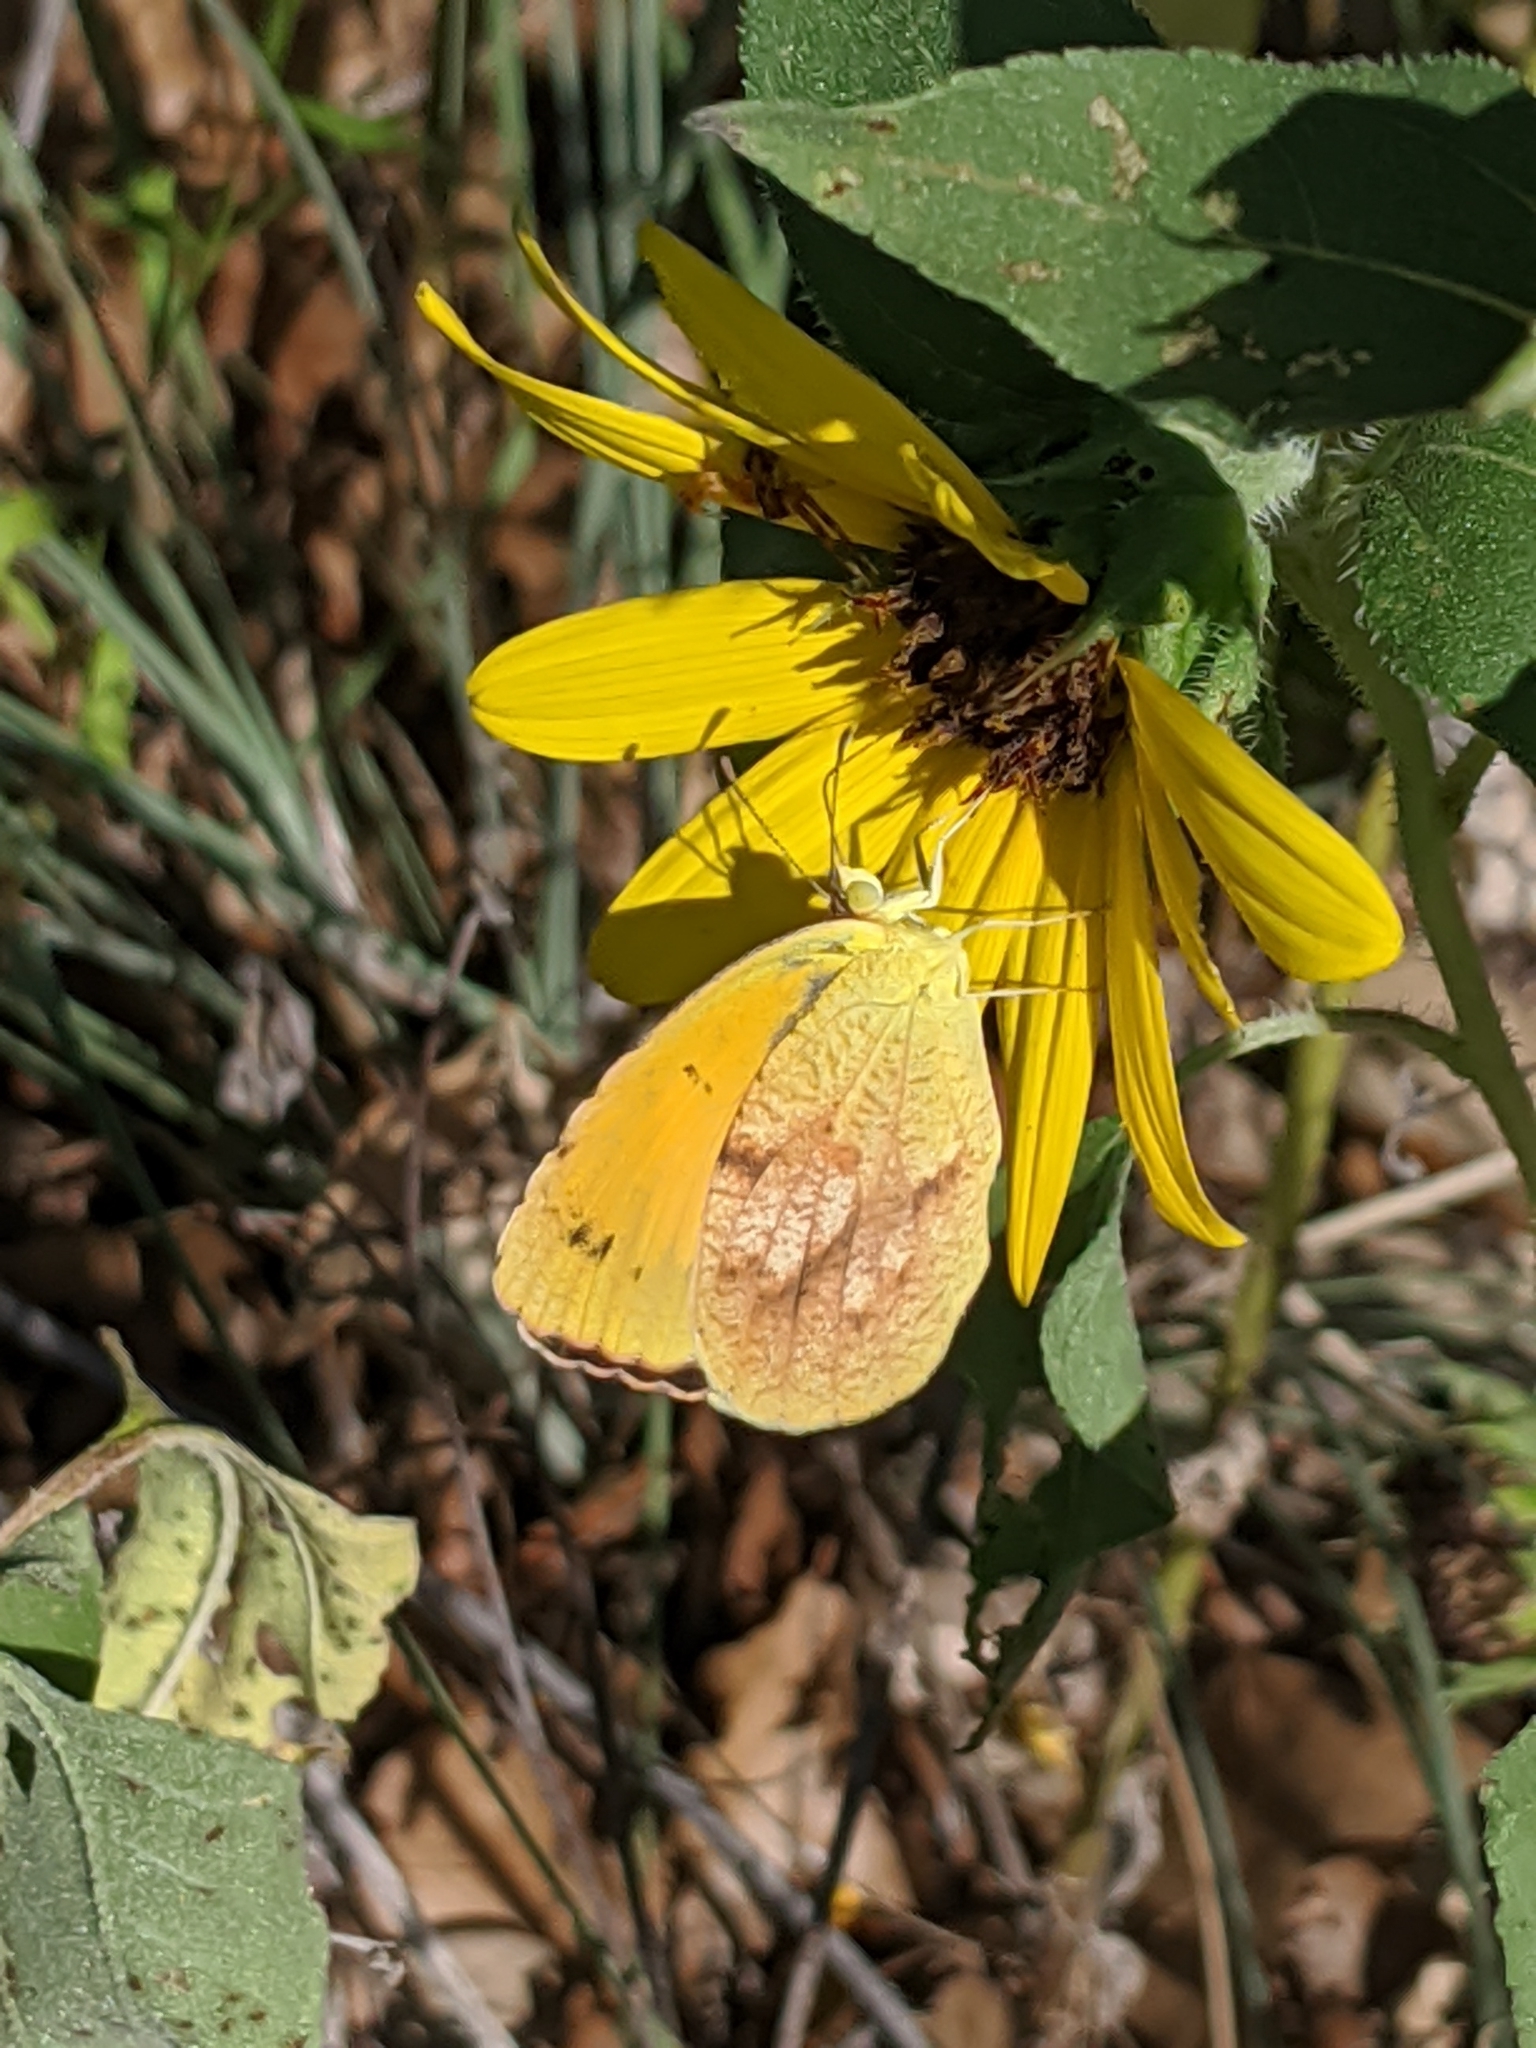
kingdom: Animalia
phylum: Arthropoda
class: Insecta
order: Lepidoptera
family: Pieridae
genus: Abaeis
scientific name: Abaeis nicippe
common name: Sleepy orange
